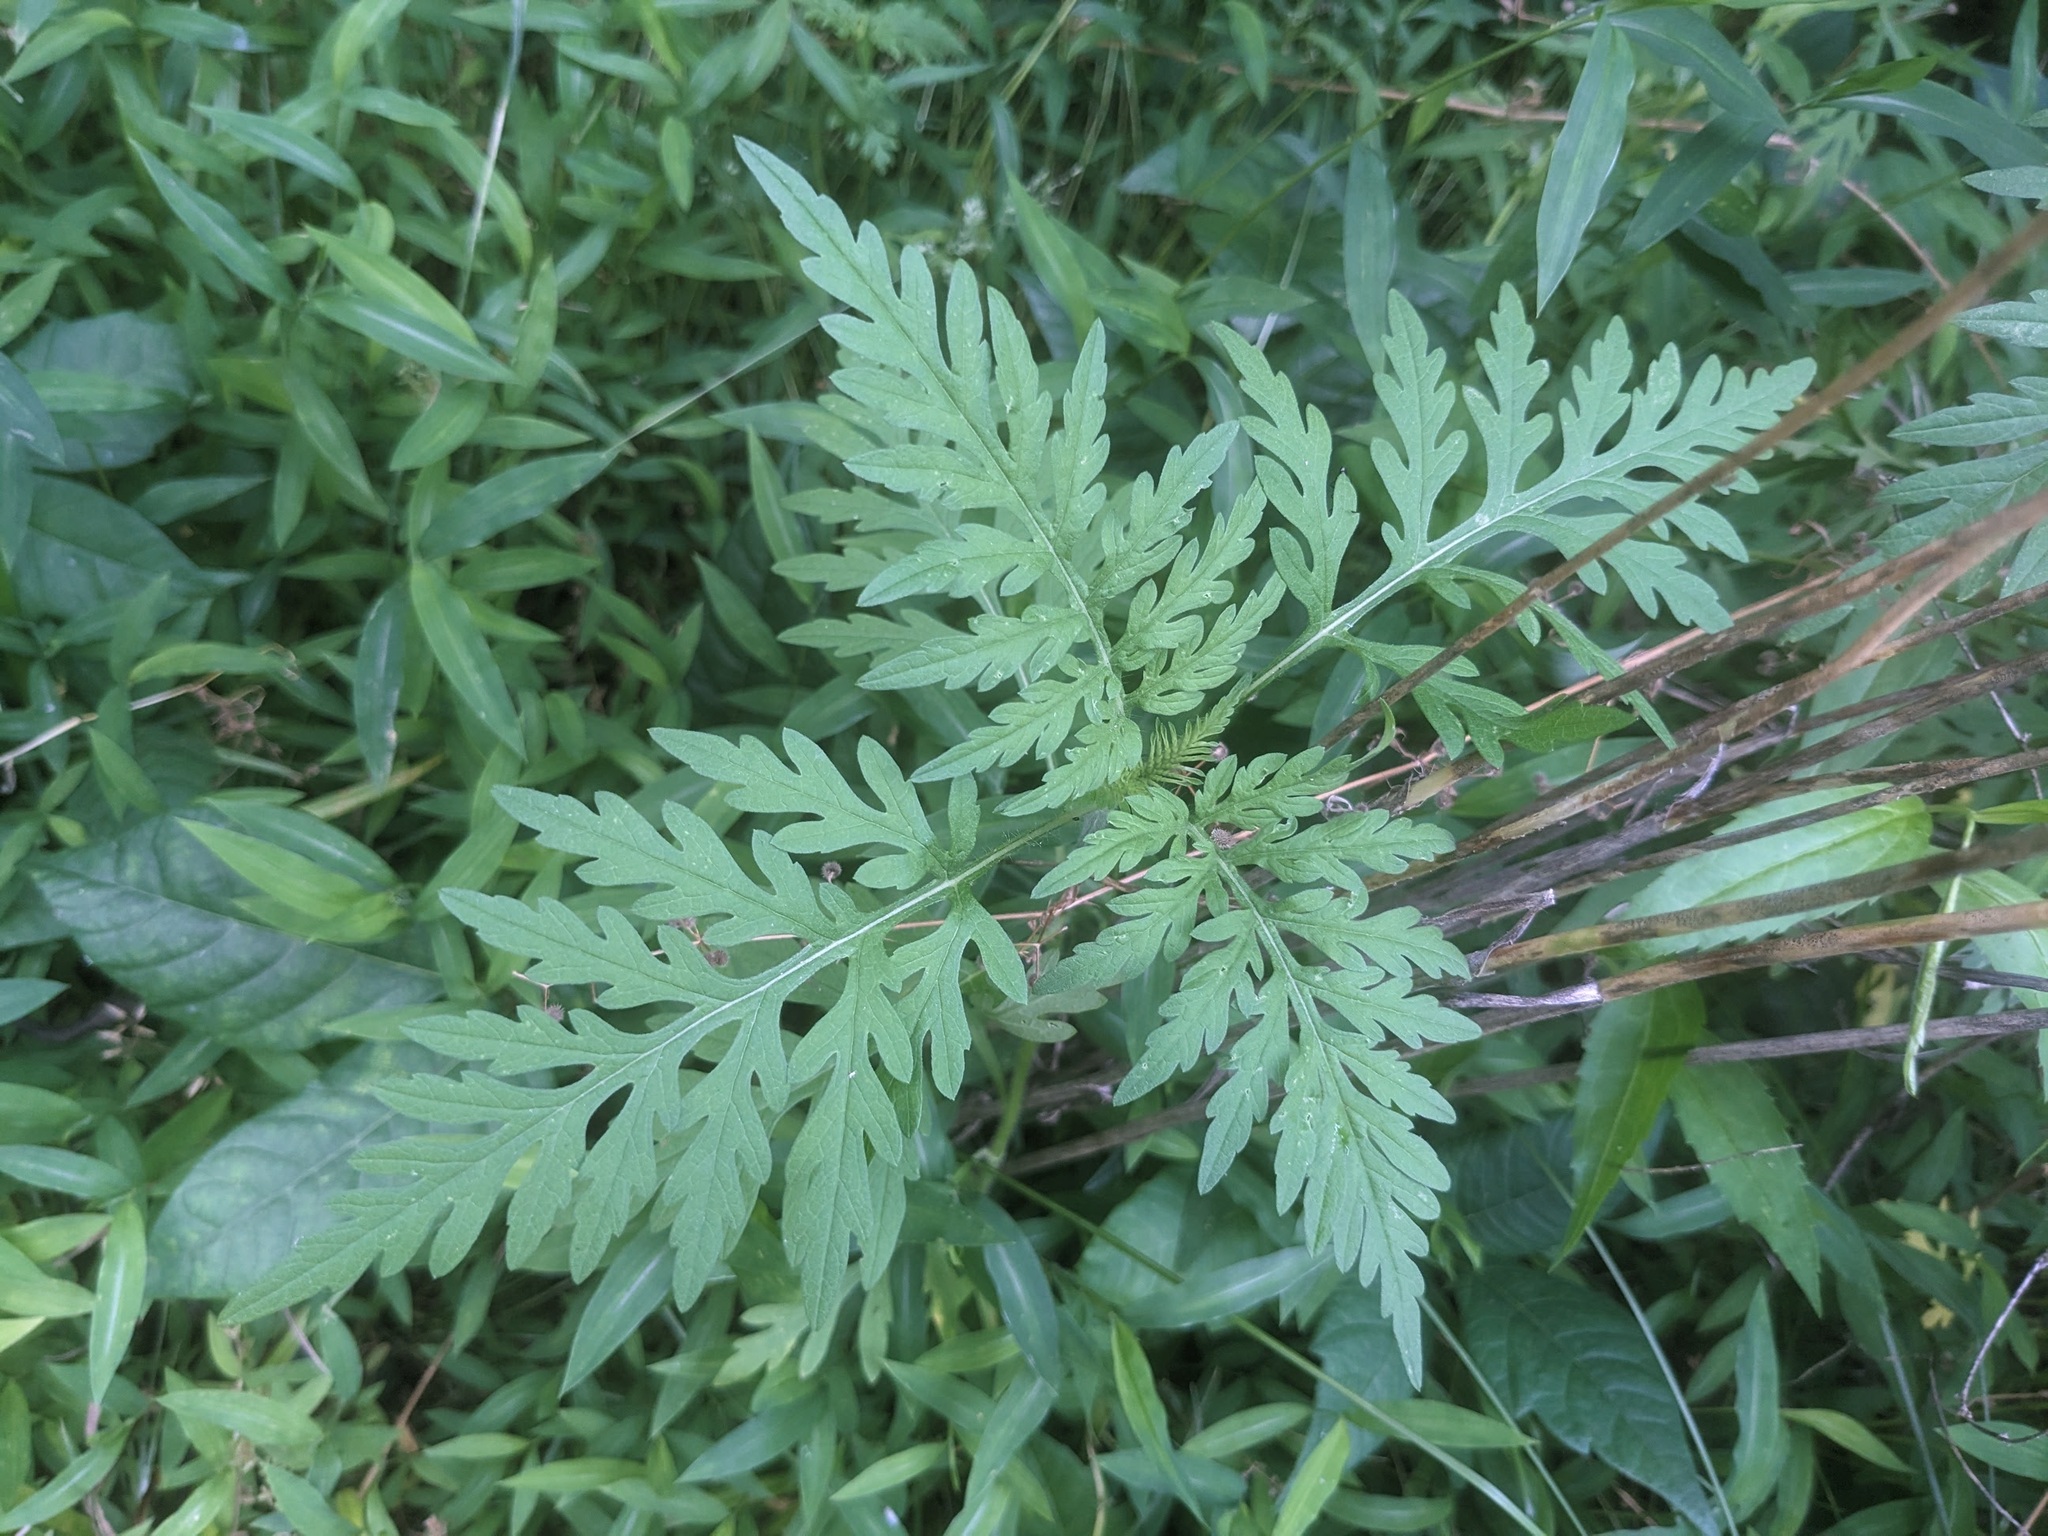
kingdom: Plantae
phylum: Tracheophyta
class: Magnoliopsida
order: Asterales
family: Asteraceae
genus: Ambrosia
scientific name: Ambrosia artemisiifolia
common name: Annual ragweed
